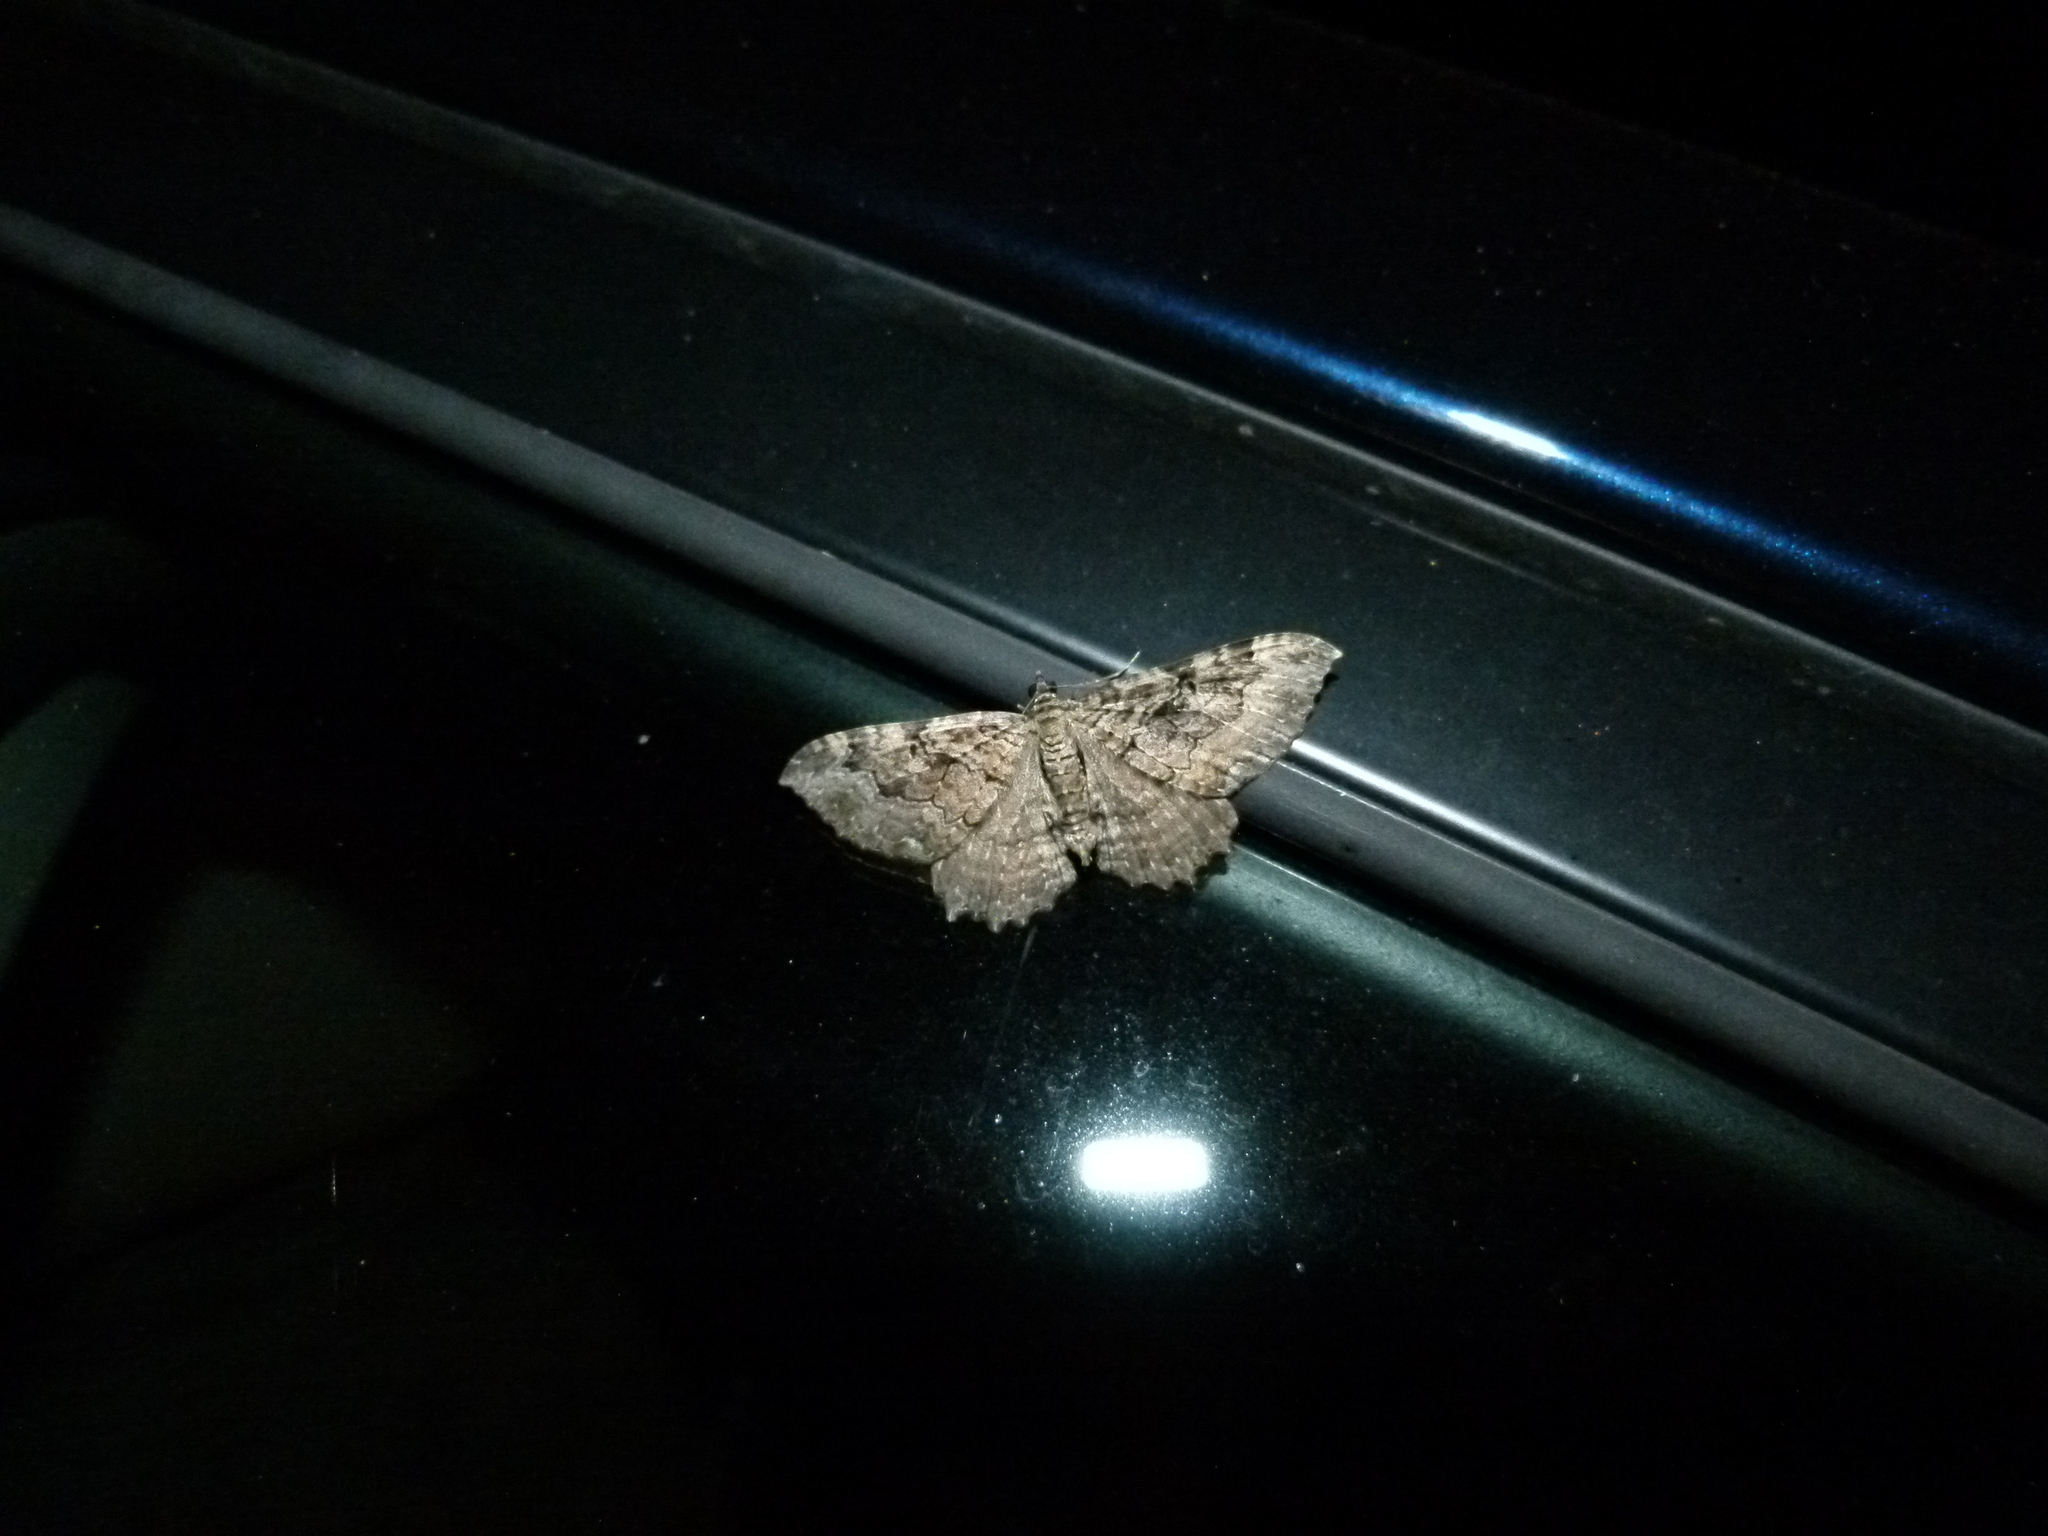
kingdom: Animalia
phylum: Arthropoda
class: Insecta
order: Lepidoptera
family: Geometridae
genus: Rheumaptera
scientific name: Rheumaptera
